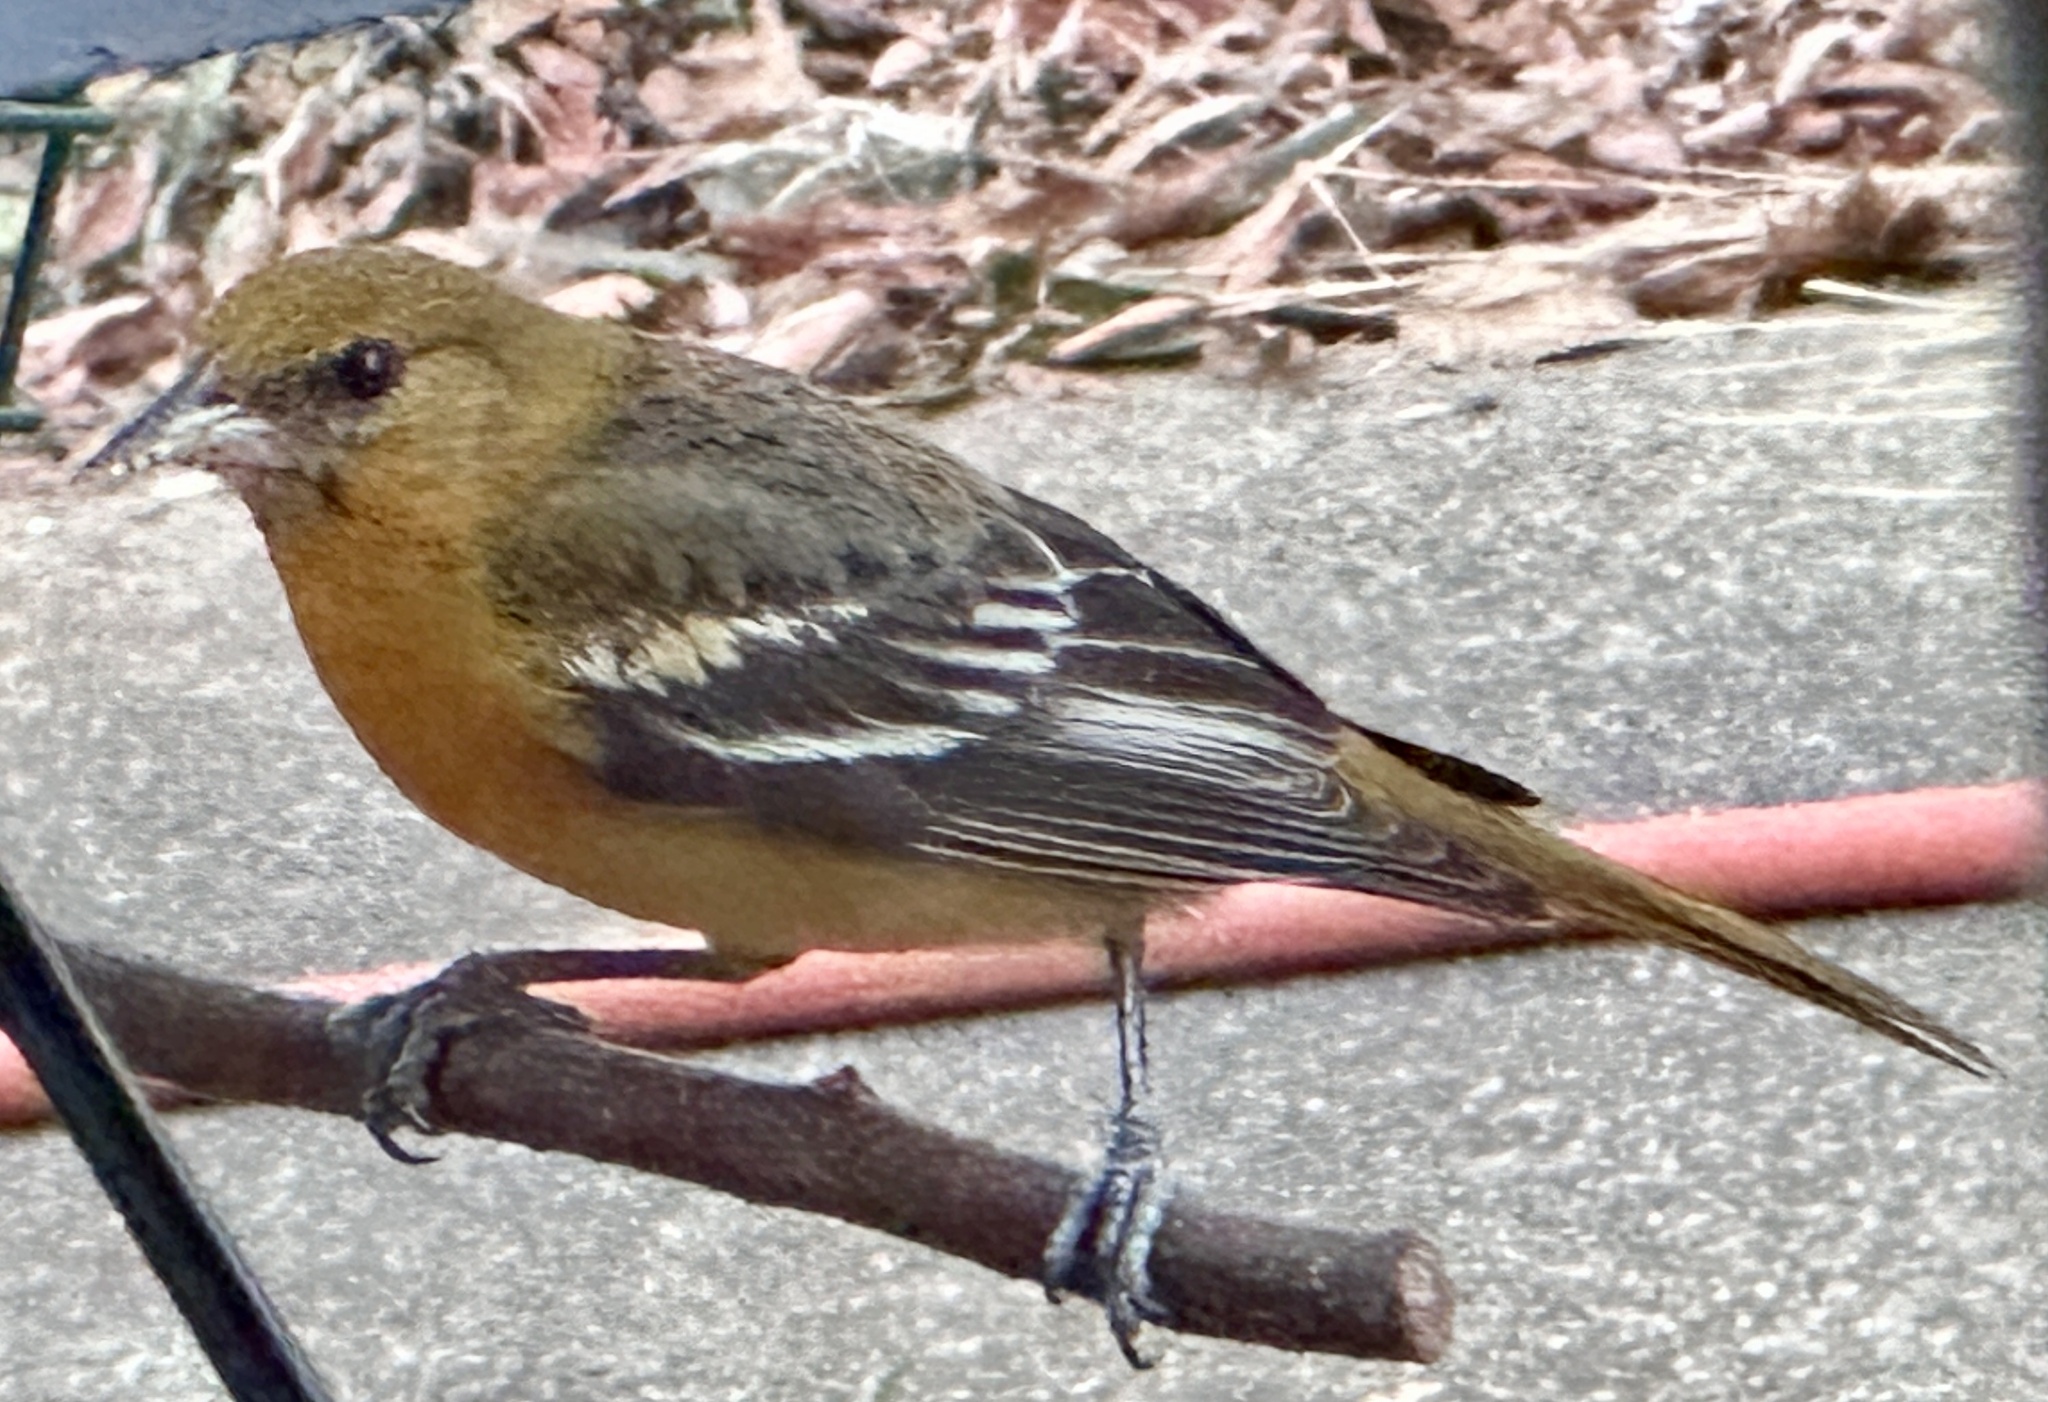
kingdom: Animalia
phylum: Chordata
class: Aves
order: Passeriformes
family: Icteridae
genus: Icterus
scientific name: Icterus galbula
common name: Baltimore oriole
